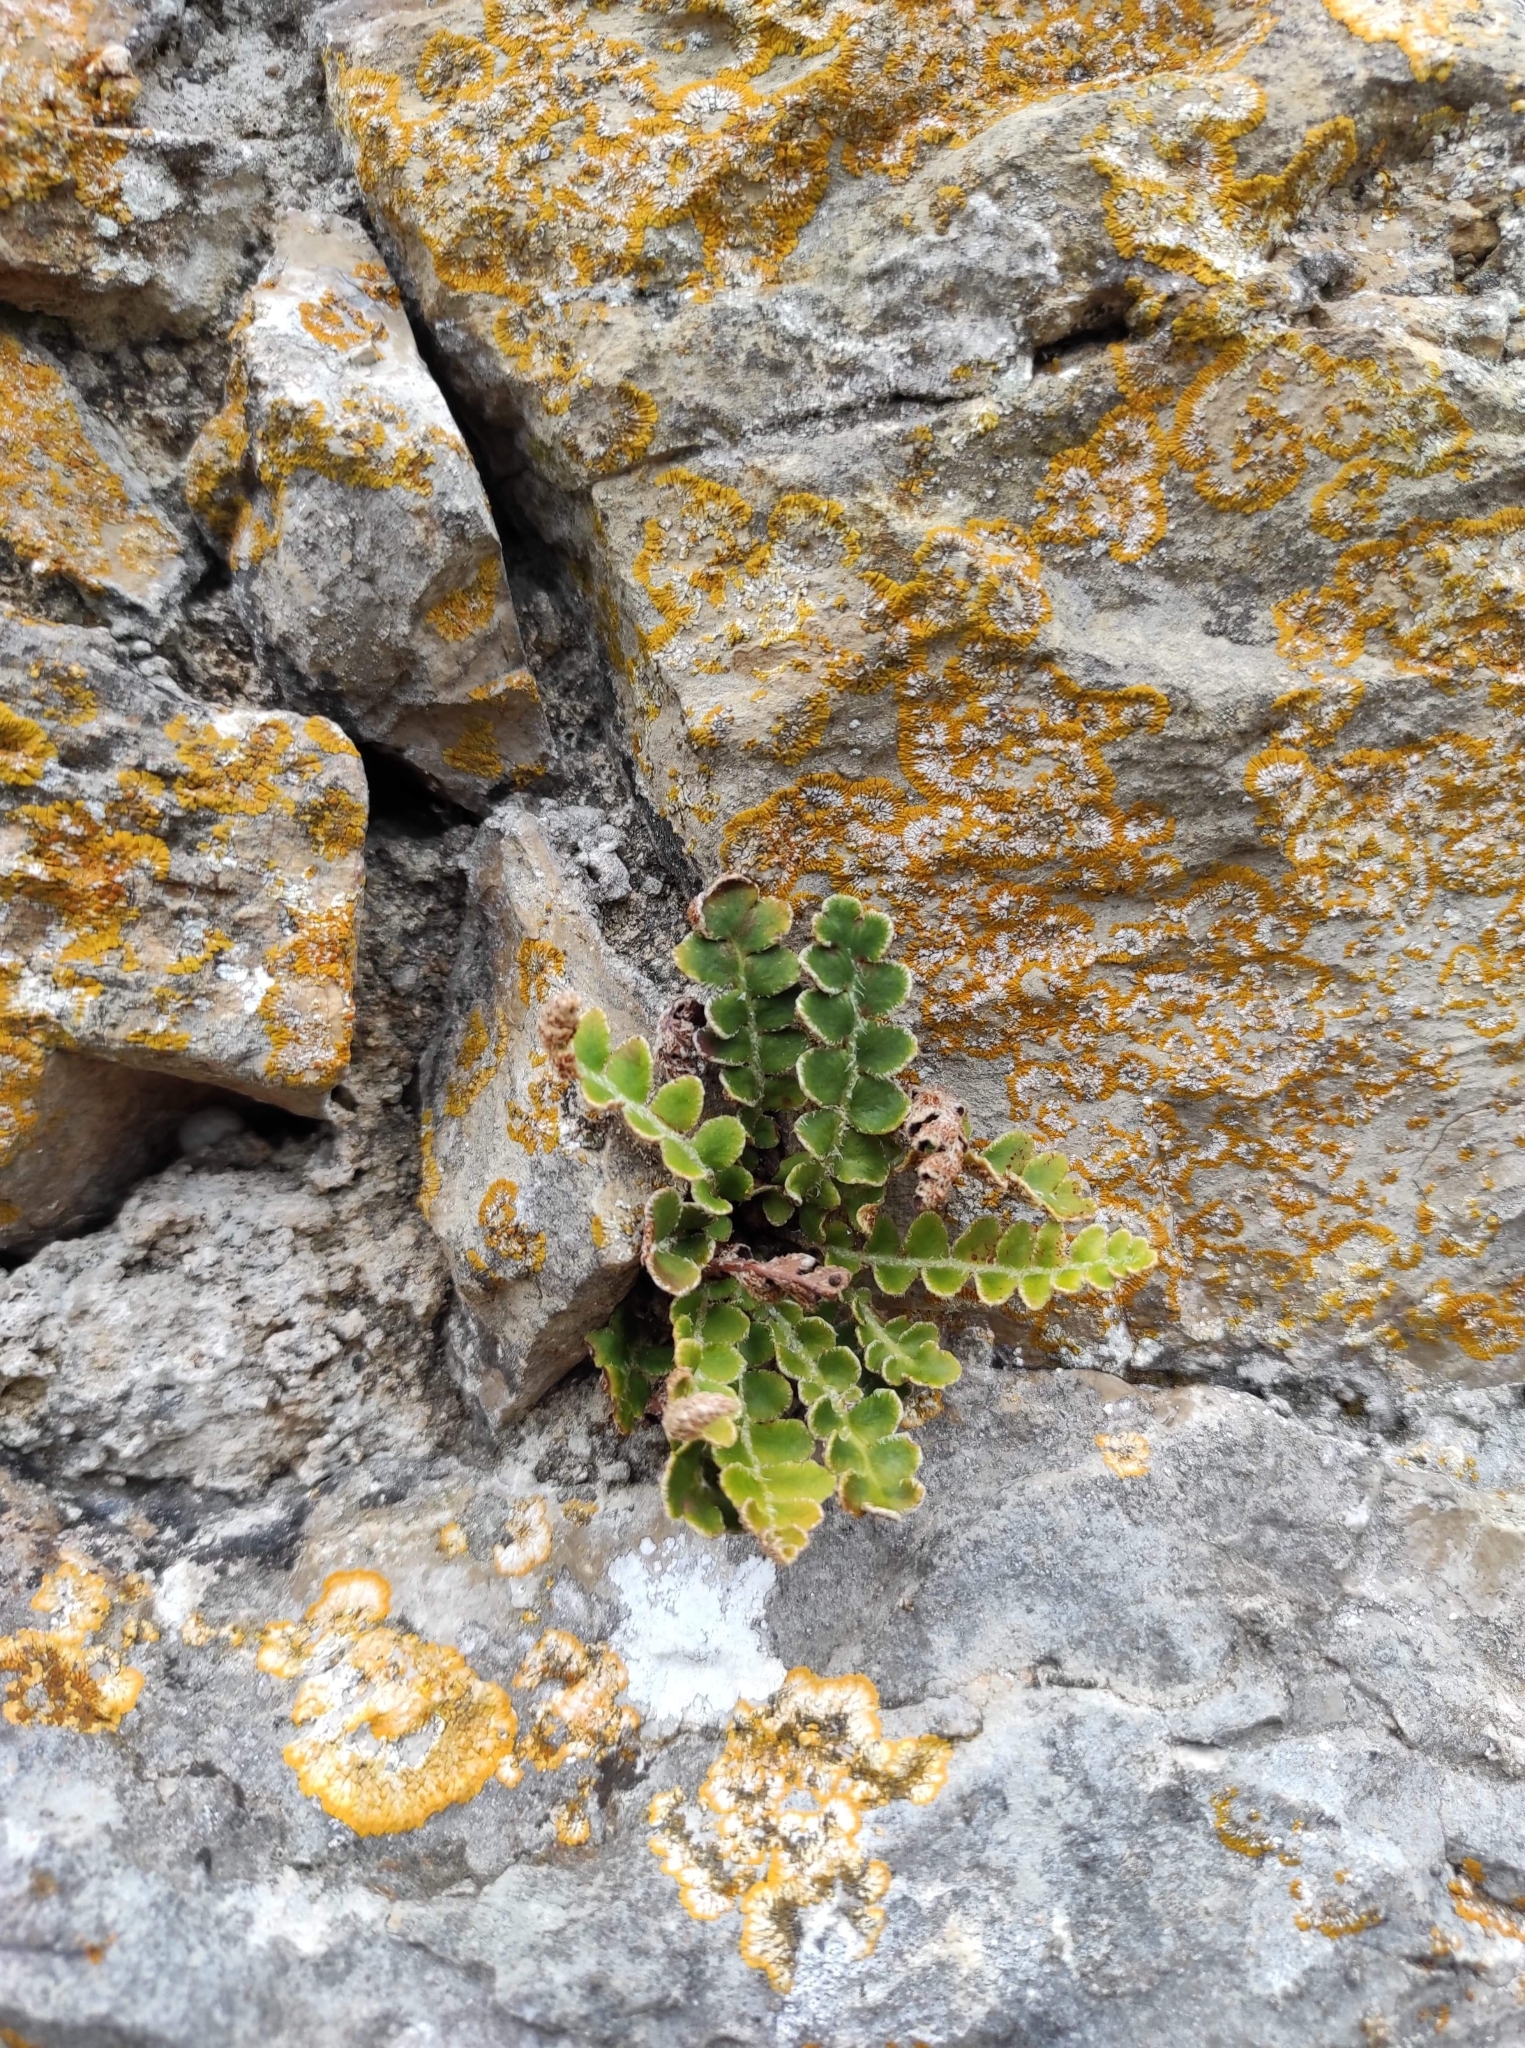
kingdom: Plantae
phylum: Tracheophyta
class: Polypodiopsida
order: Polypodiales
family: Aspleniaceae
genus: Asplenium
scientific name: Asplenium ceterach
